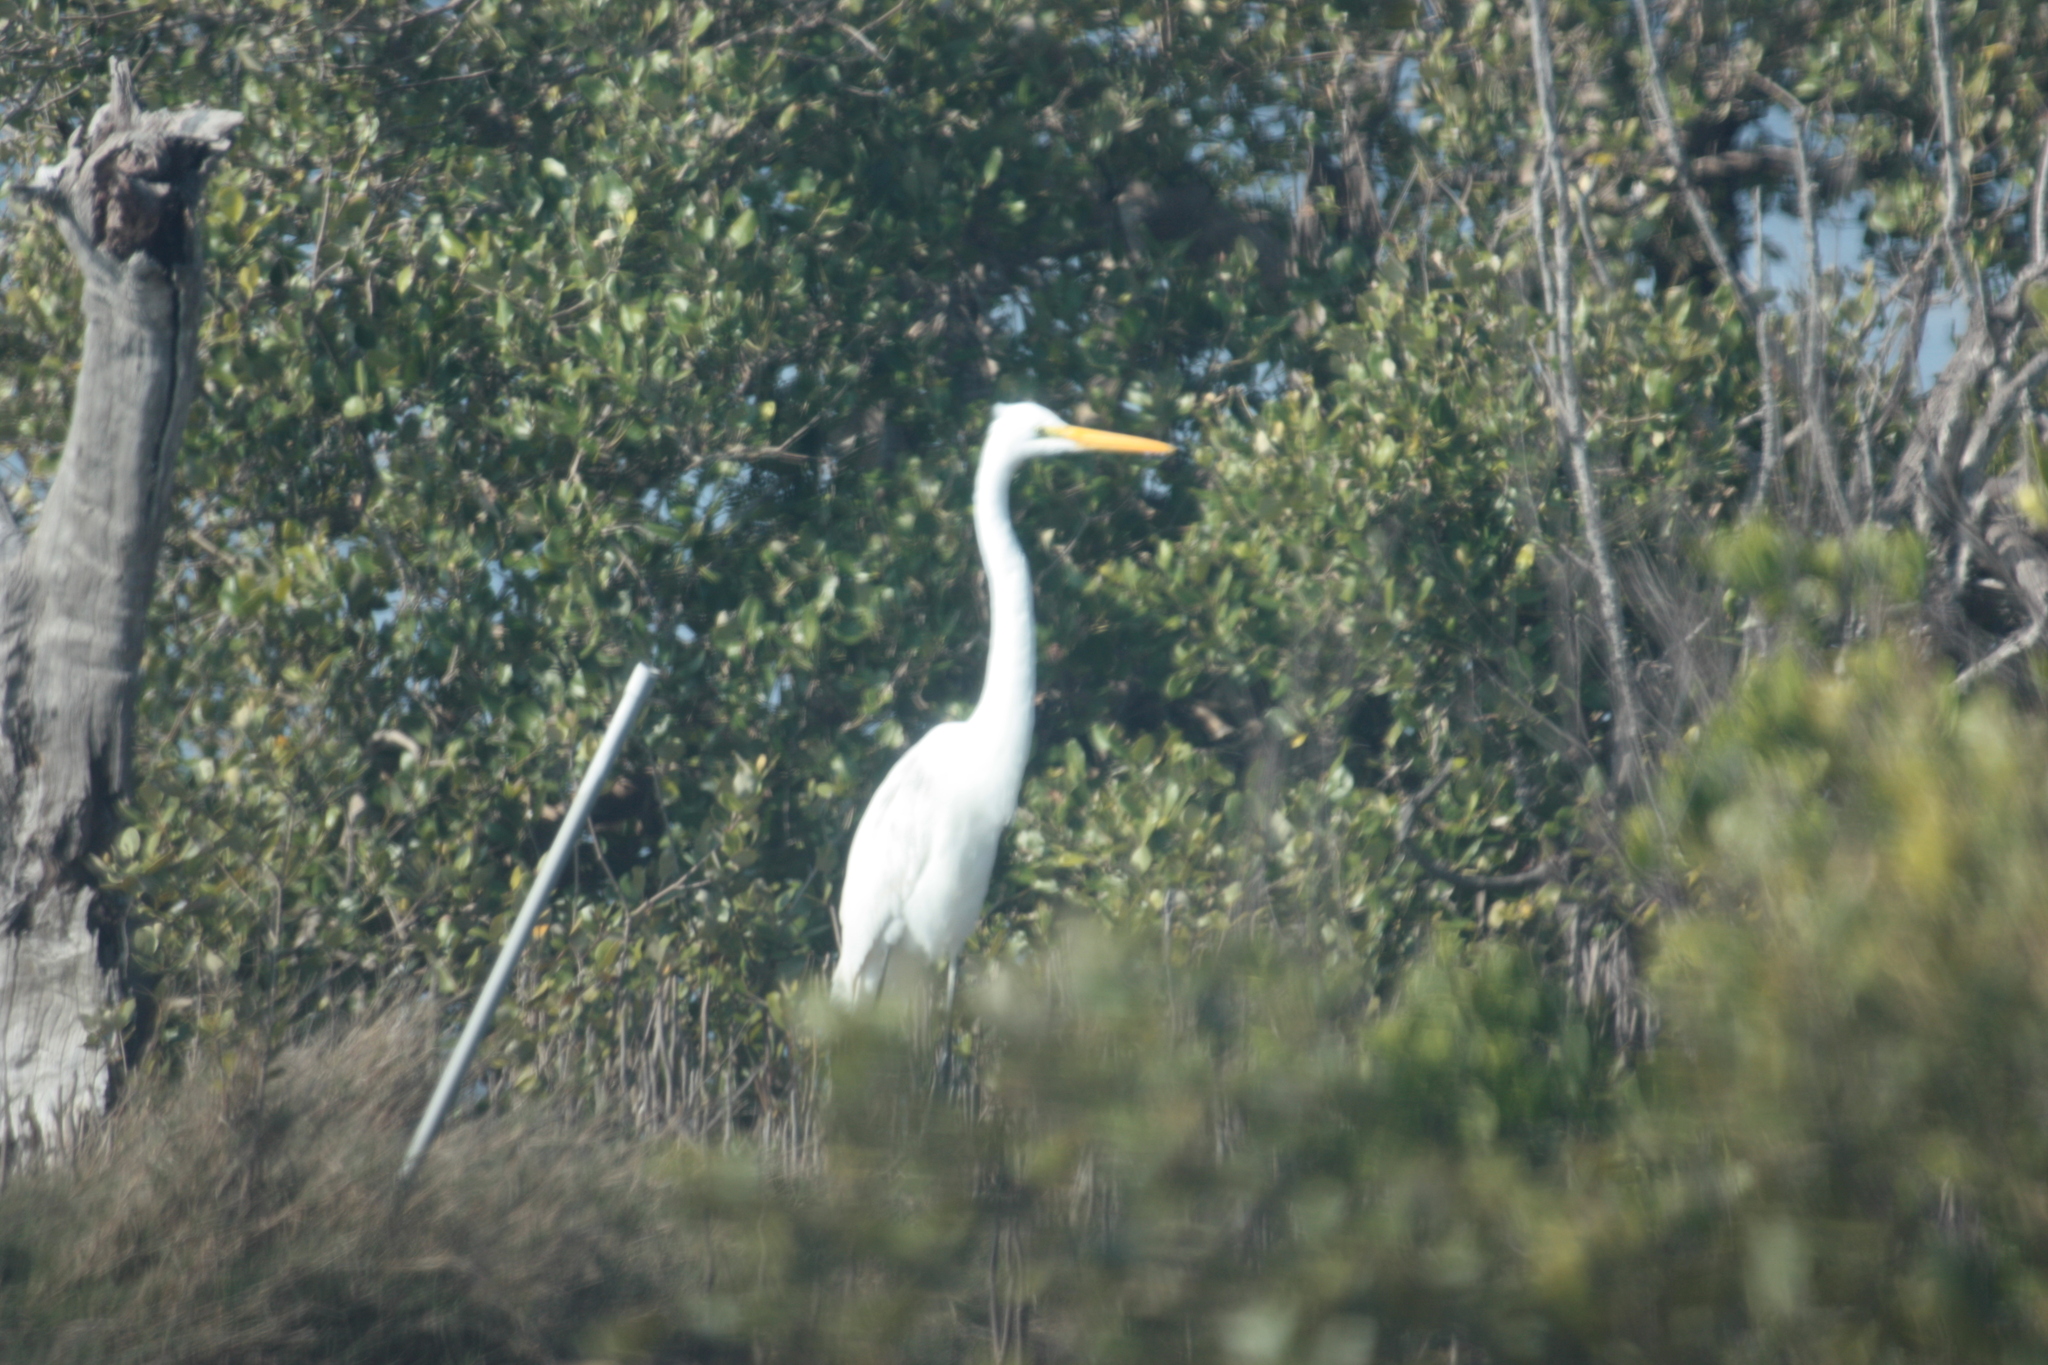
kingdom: Animalia
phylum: Chordata
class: Aves
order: Pelecaniformes
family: Ardeidae
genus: Ardea
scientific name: Ardea alba
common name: Great egret
